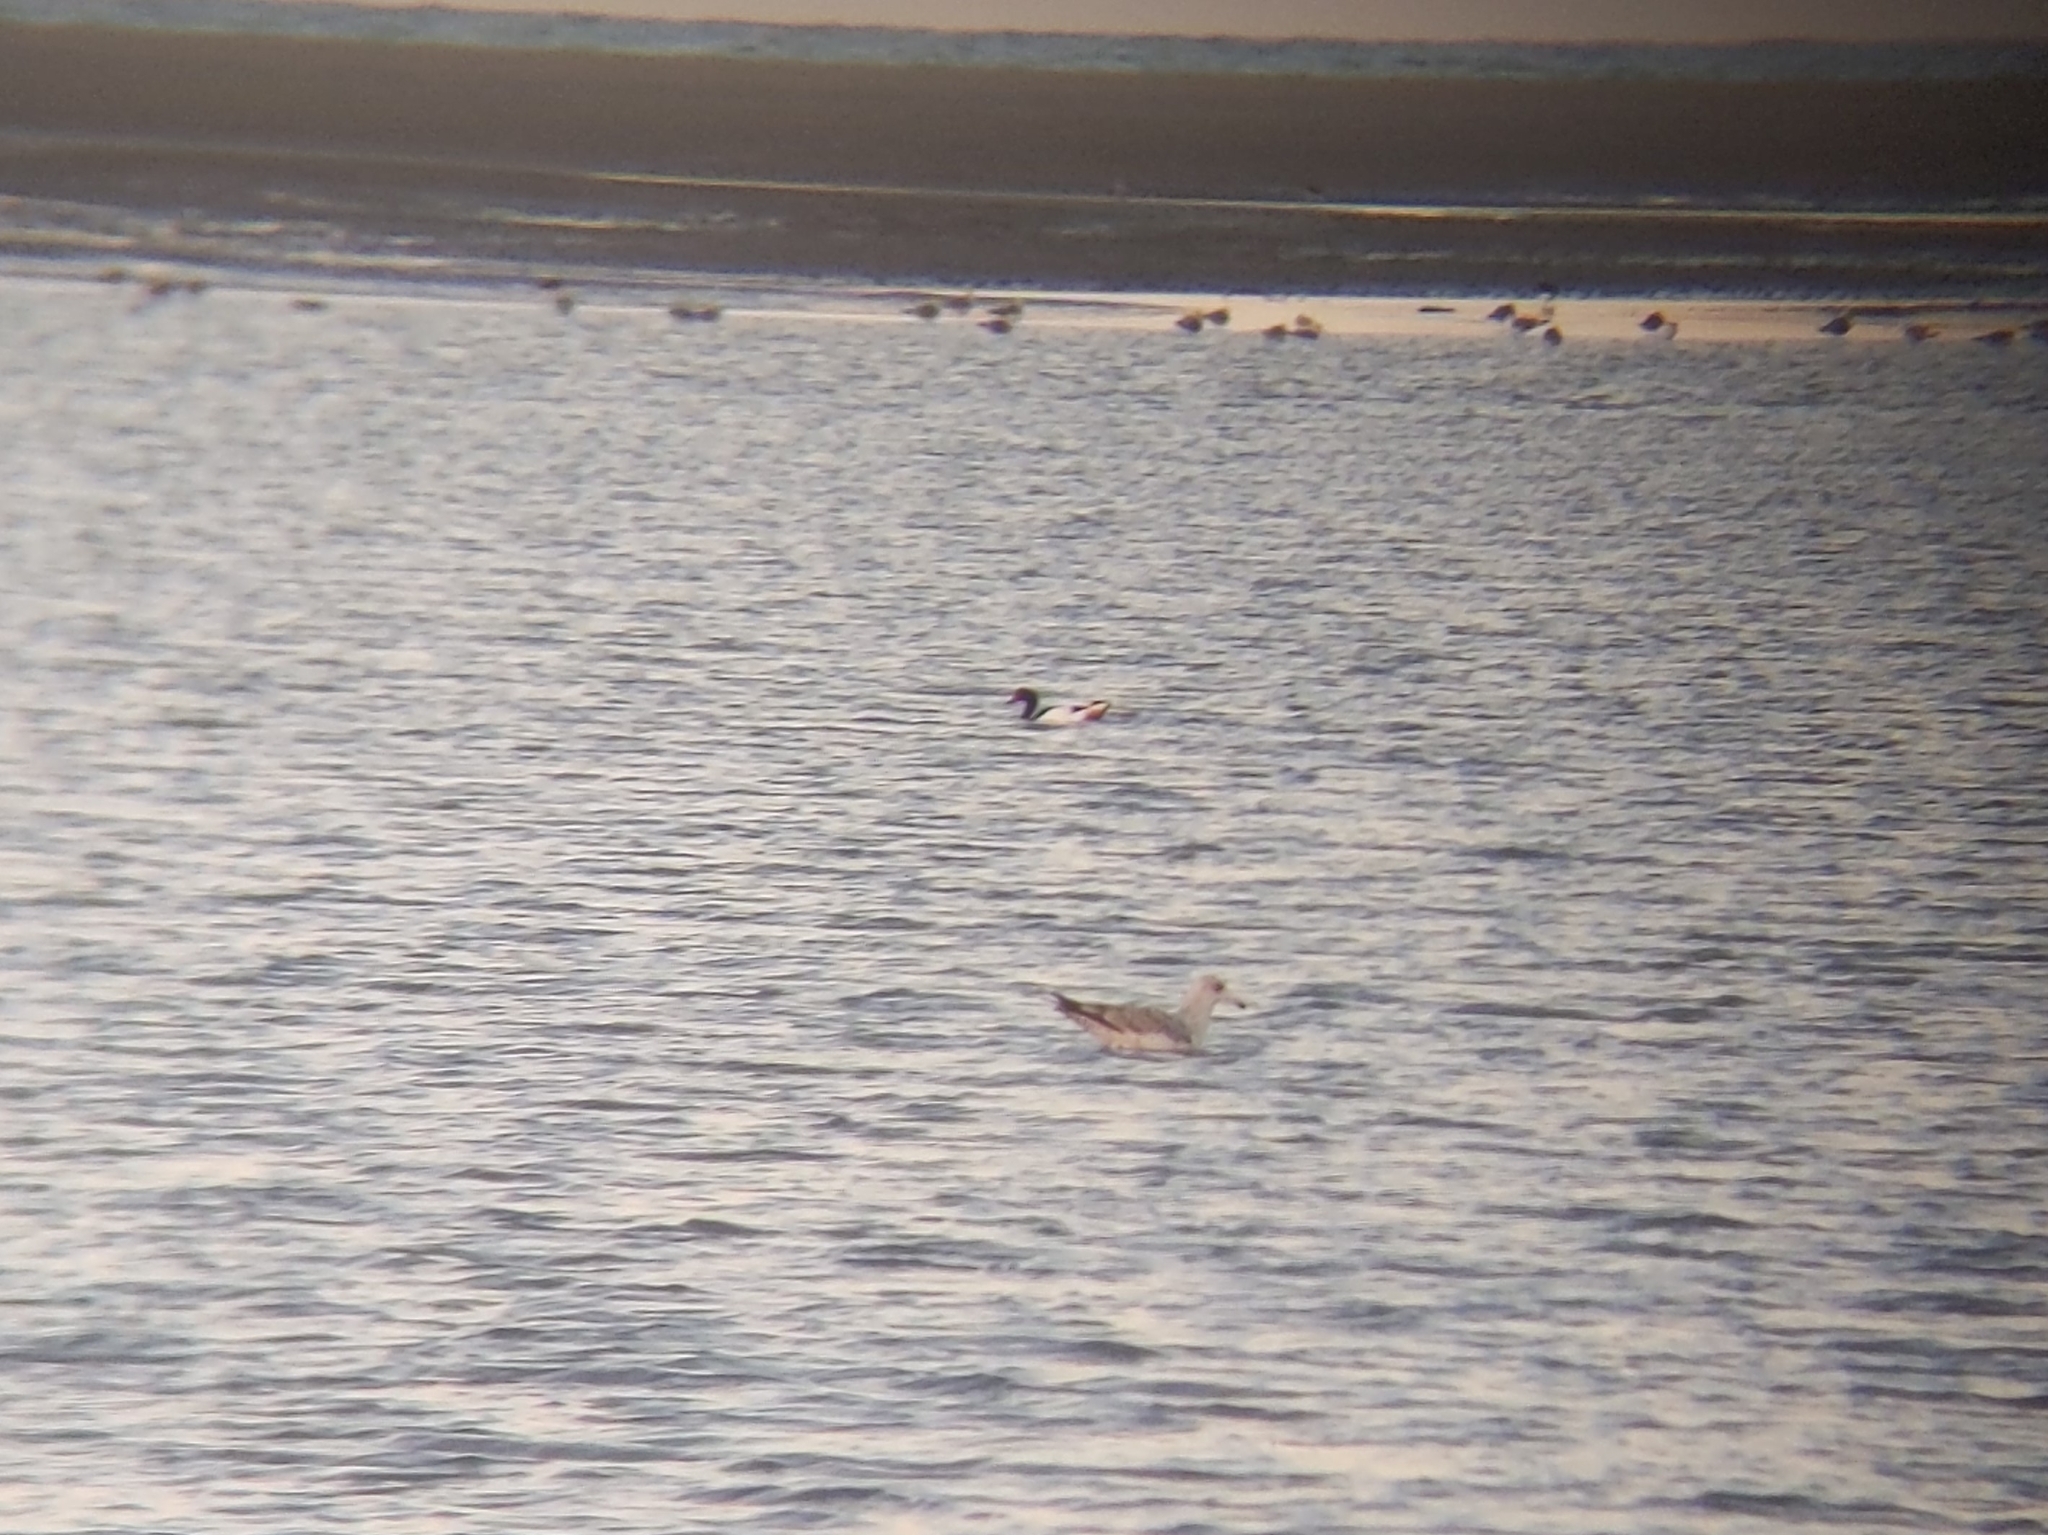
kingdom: Animalia
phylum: Chordata
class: Aves
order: Anseriformes
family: Anatidae
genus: Tadorna
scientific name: Tadorna tadorna
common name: Common shelduck
